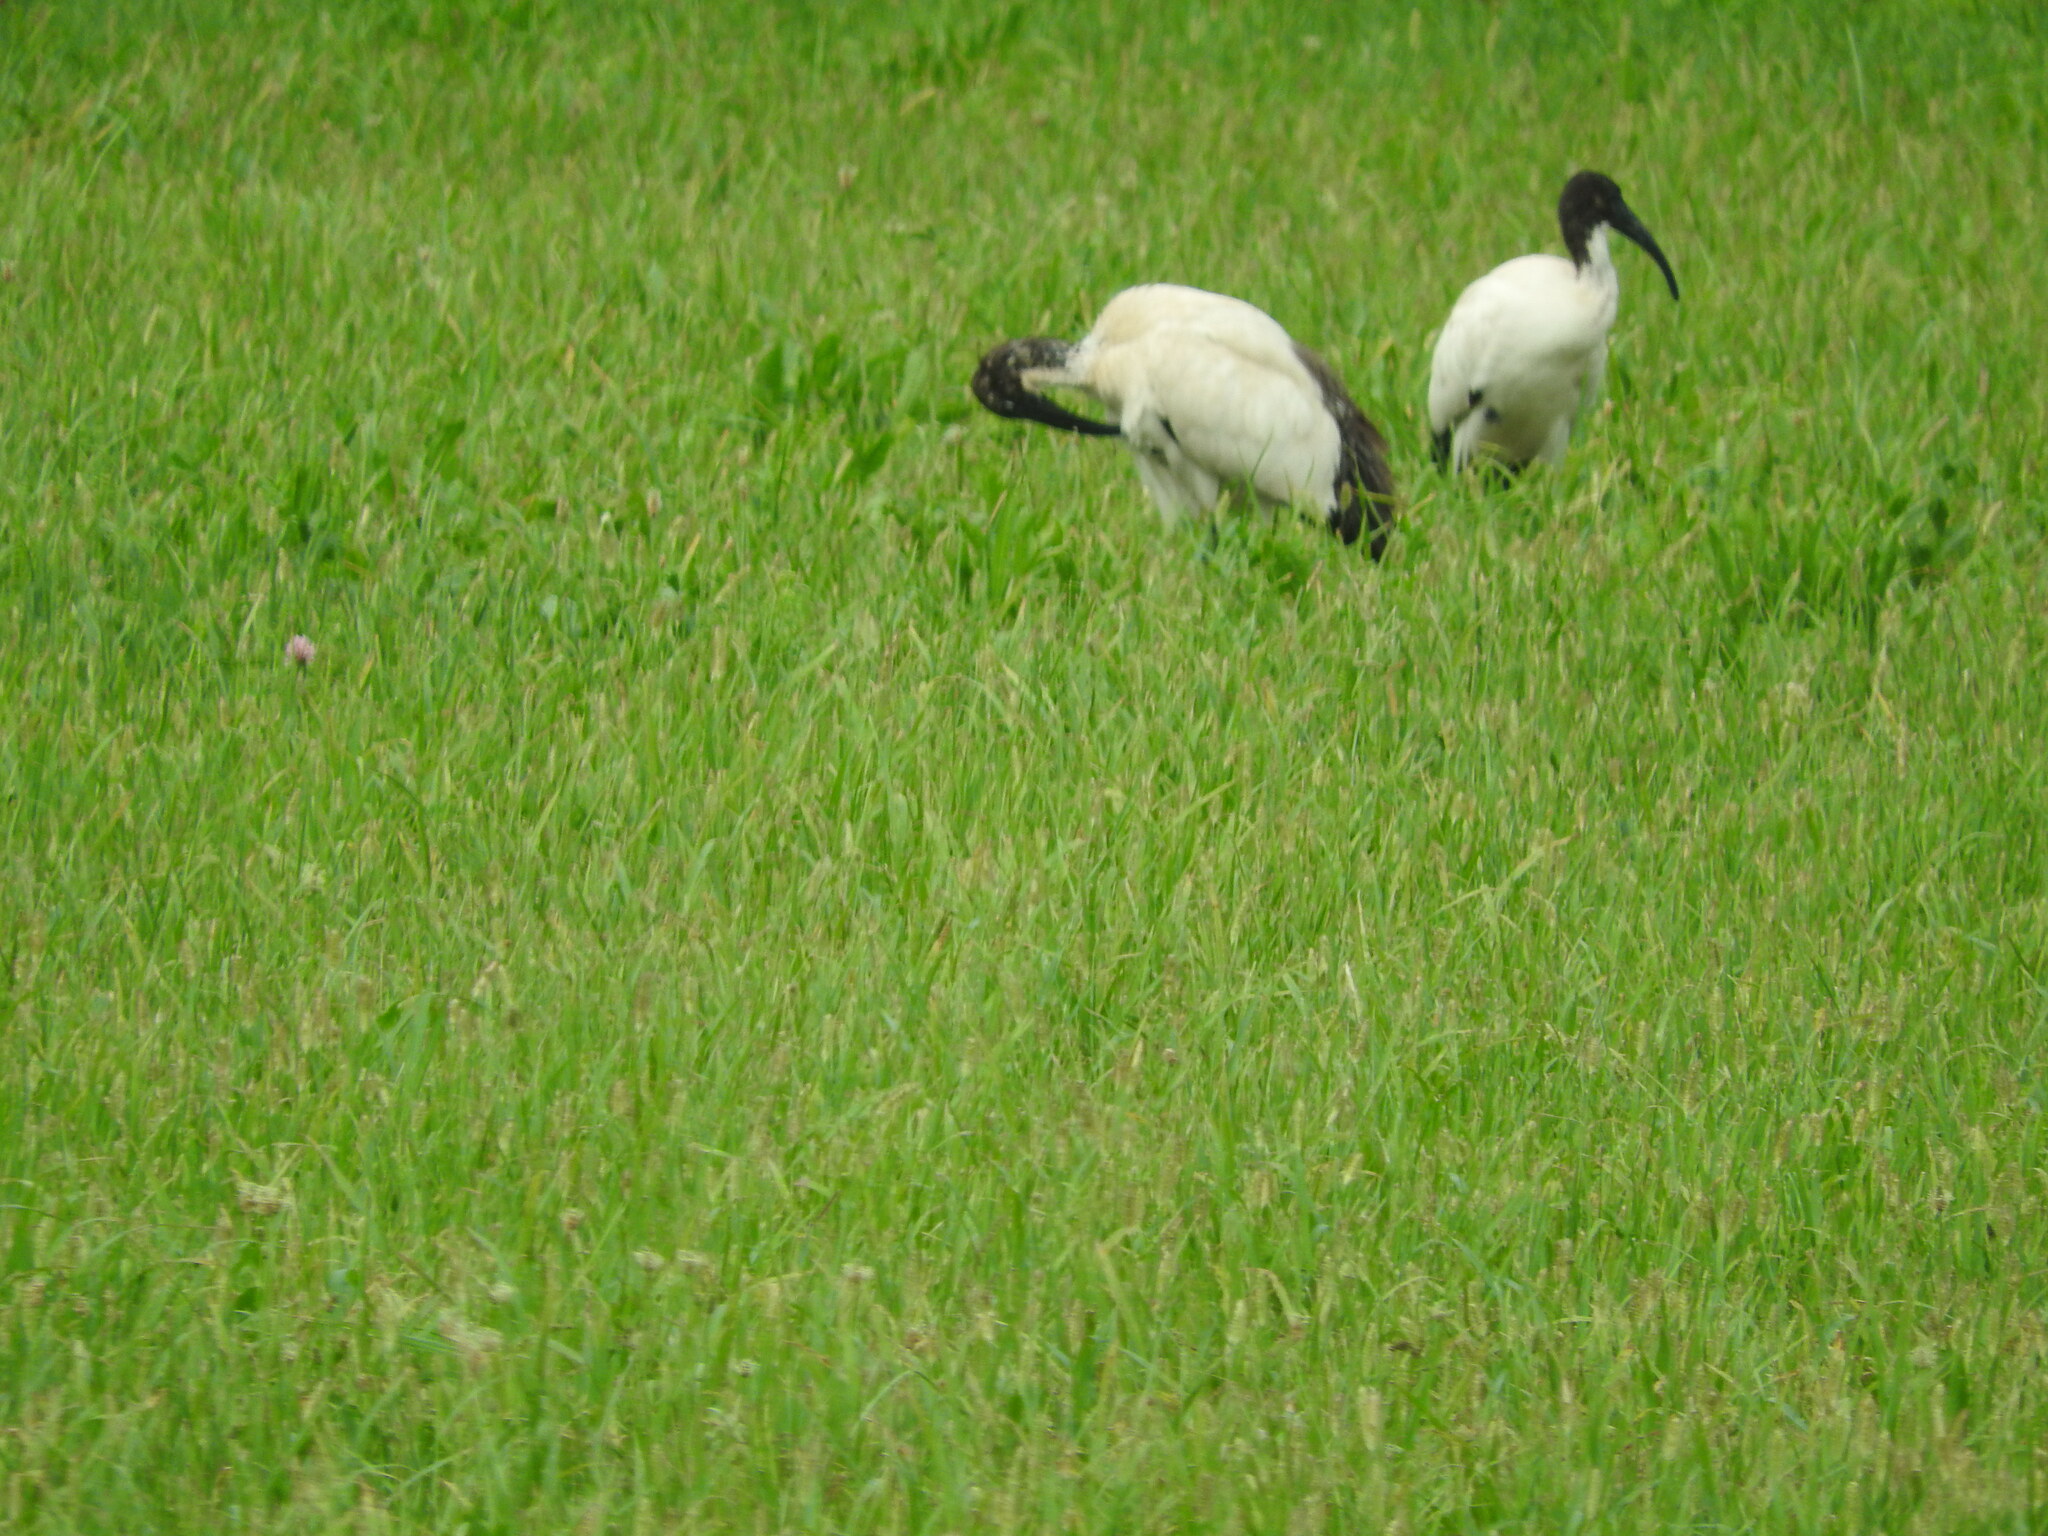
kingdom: Animalia
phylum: Chordata
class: Aves
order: Pelecaniformes
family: Threskiornithidae
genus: Threskiornis
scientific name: Threskiornis aethiopicus
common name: Sacred ibis
